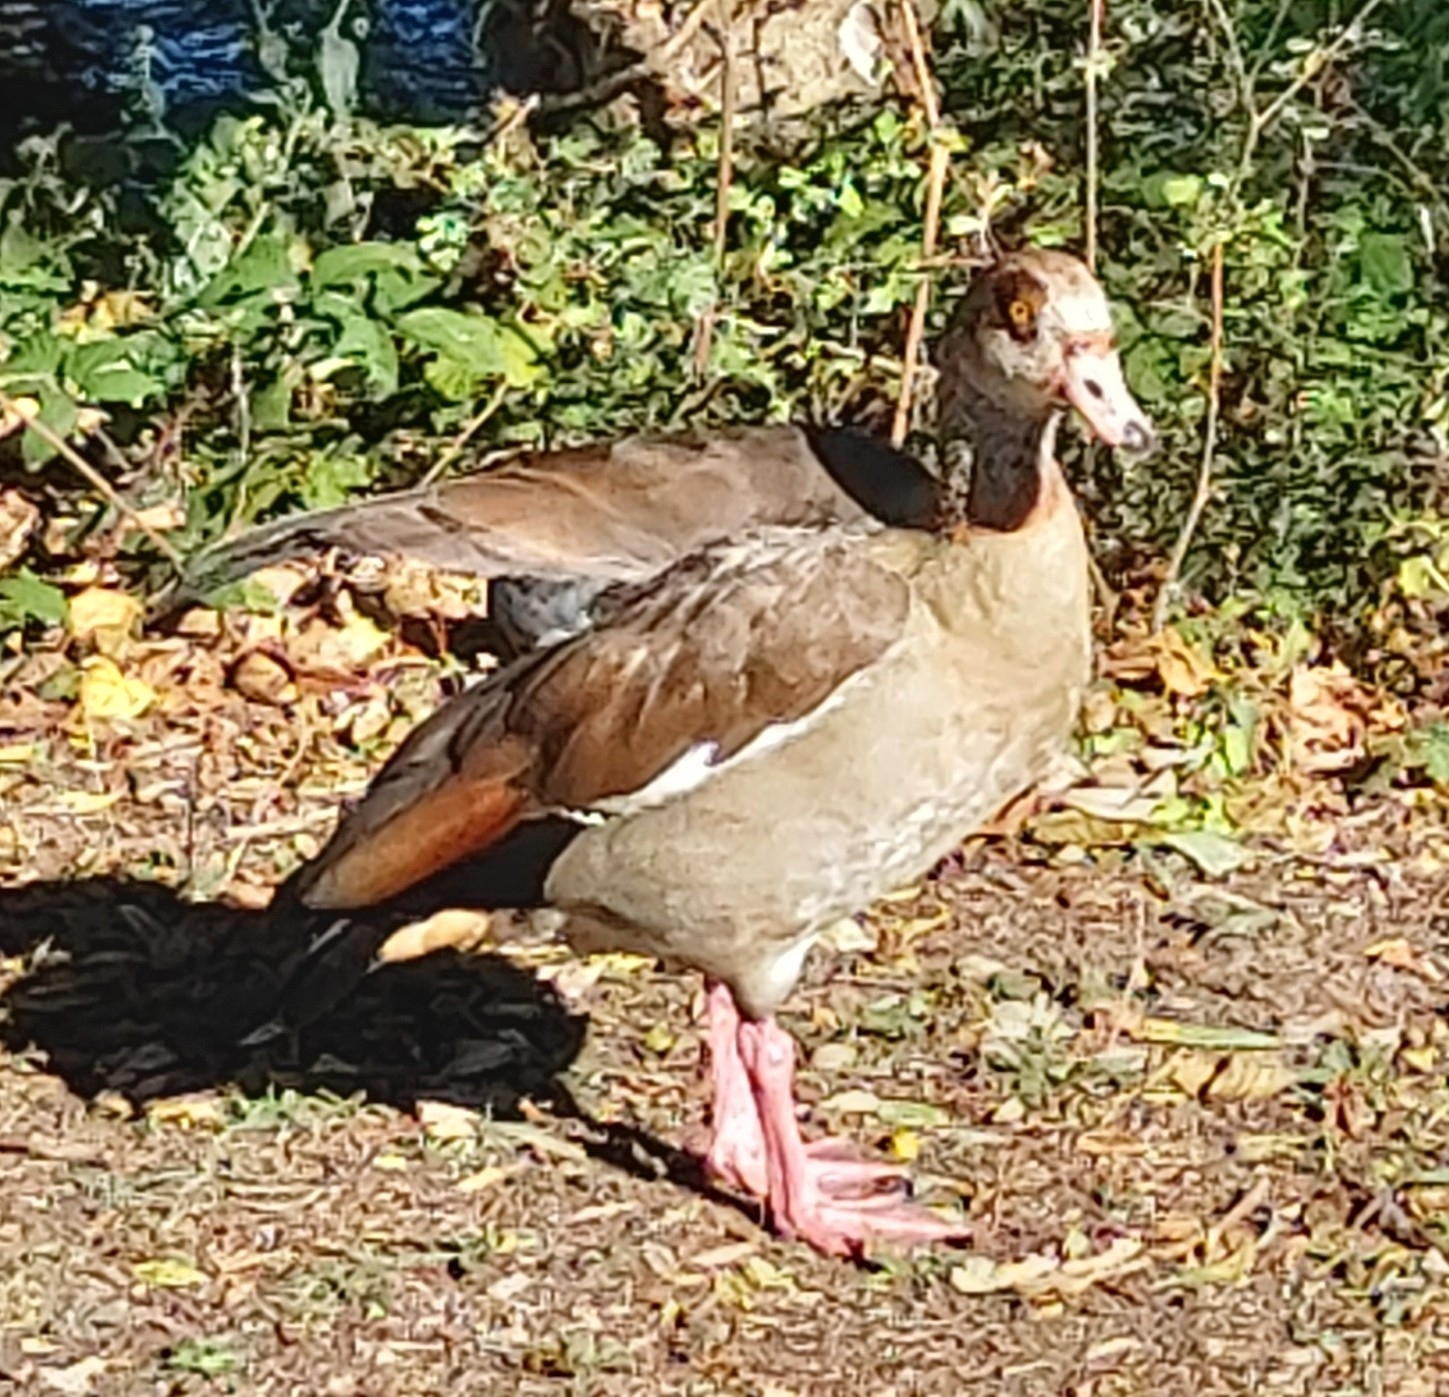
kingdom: Animalia
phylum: Chordata
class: Aves
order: Anseriformes
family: Anatidae
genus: Alopochen
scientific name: Alopochen aegyptiaca
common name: Egyptian goose
